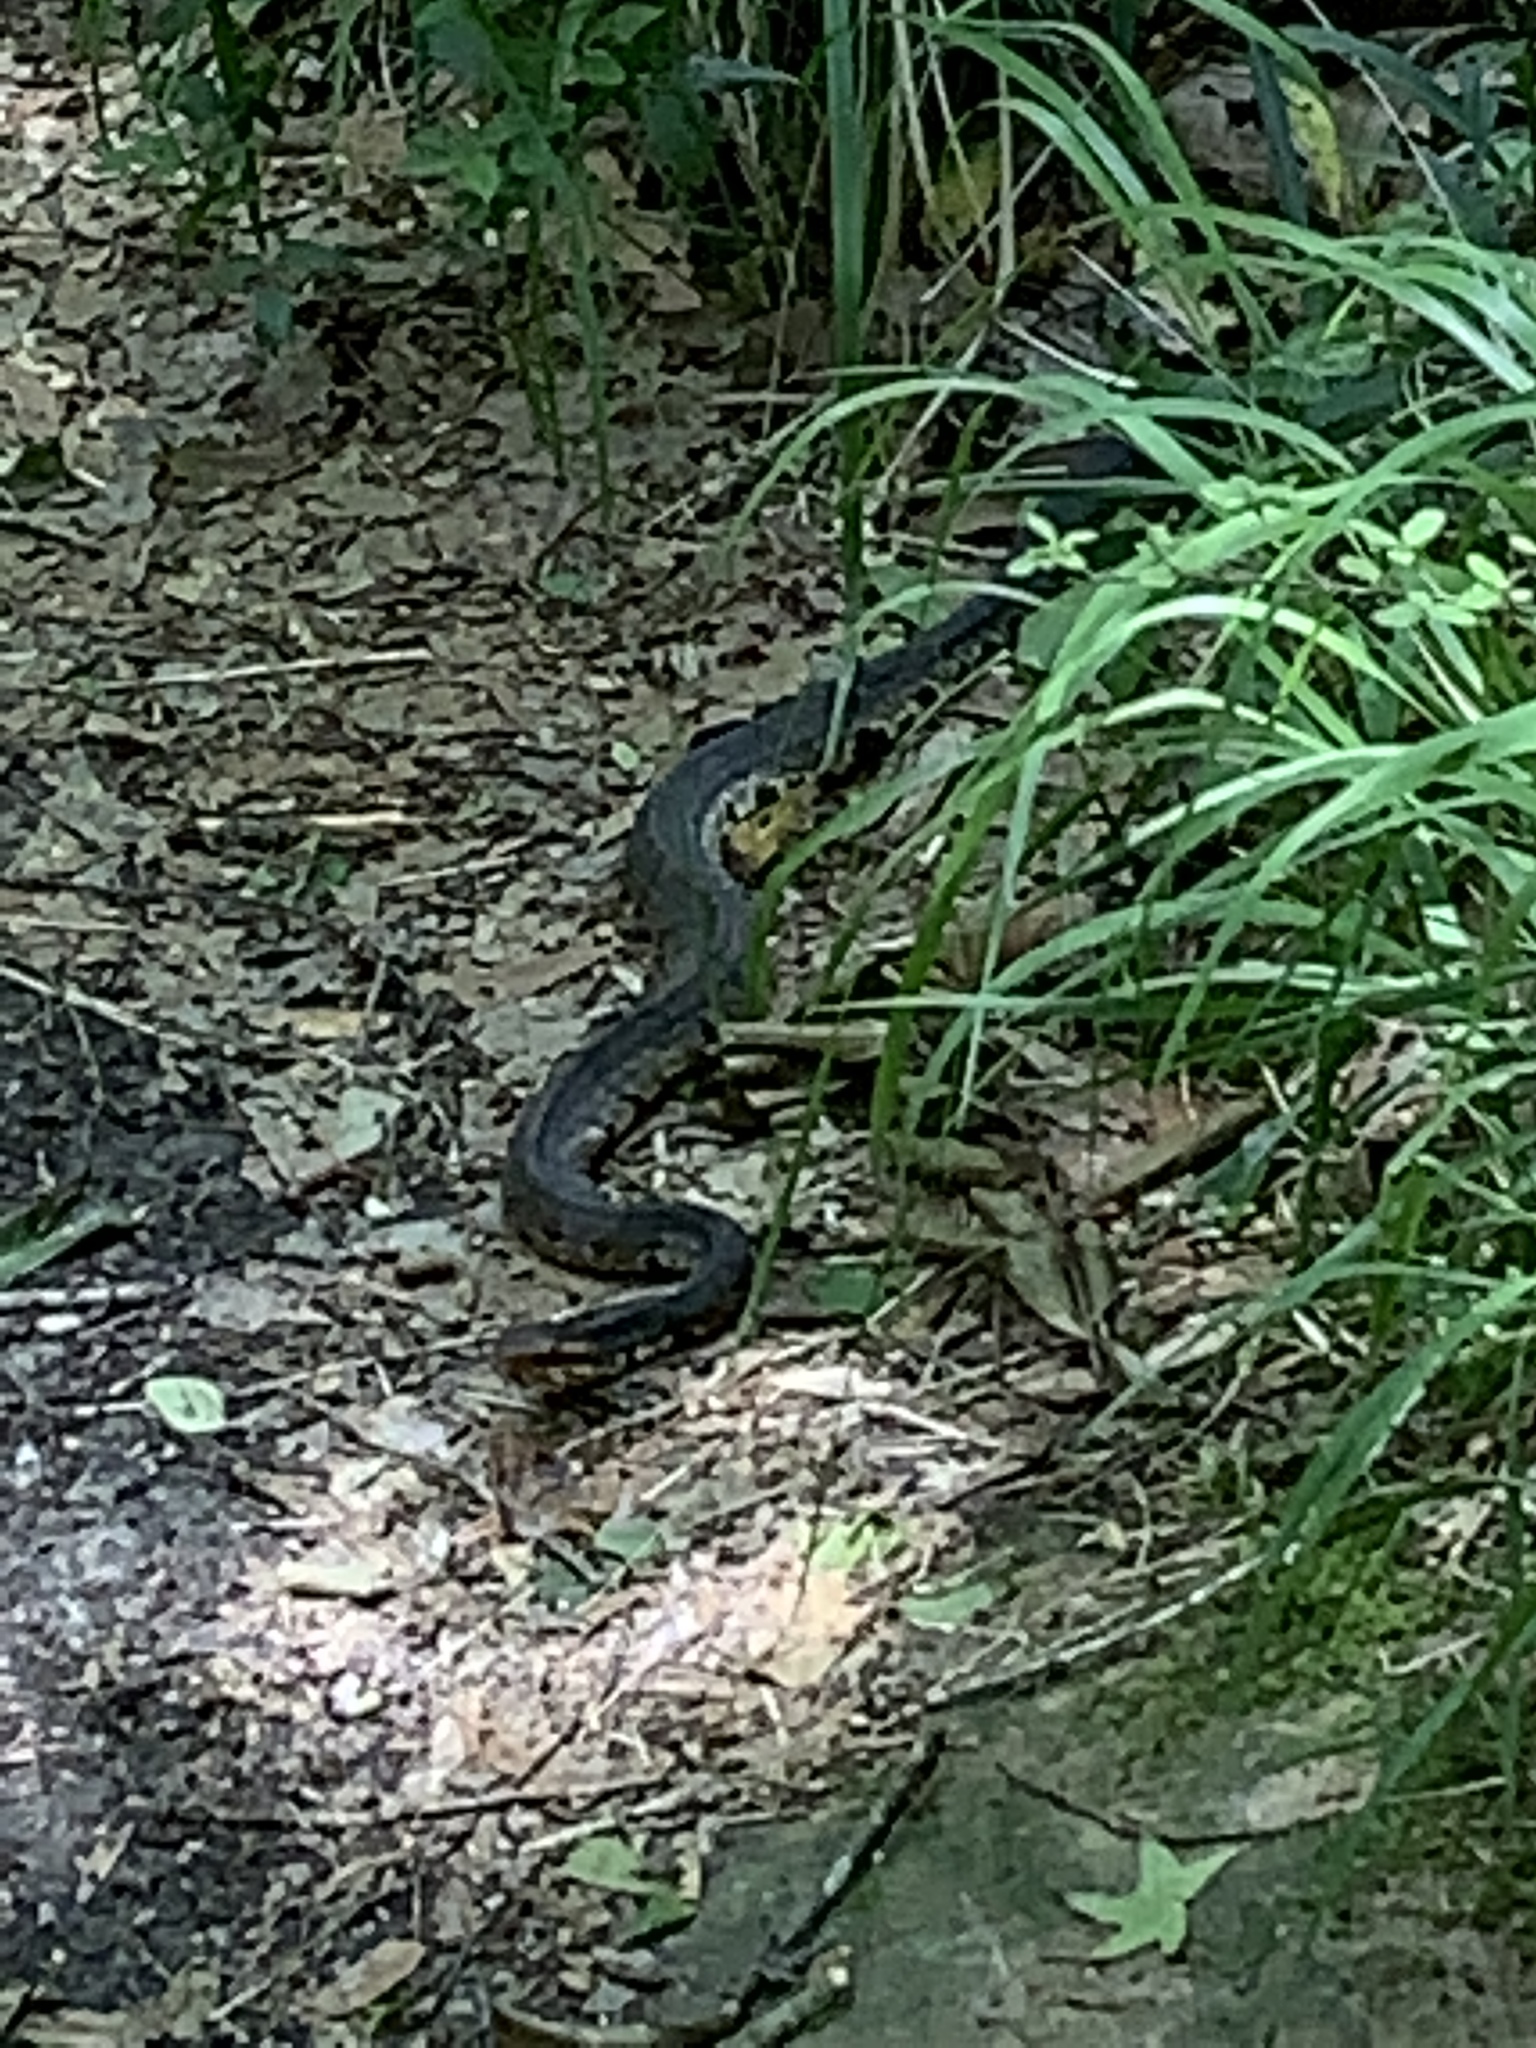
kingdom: Animalia
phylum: Chordata
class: Squamata
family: Viperidae
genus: Agkistrodon
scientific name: Agkistrodon piscivorus
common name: Cottonmouth
